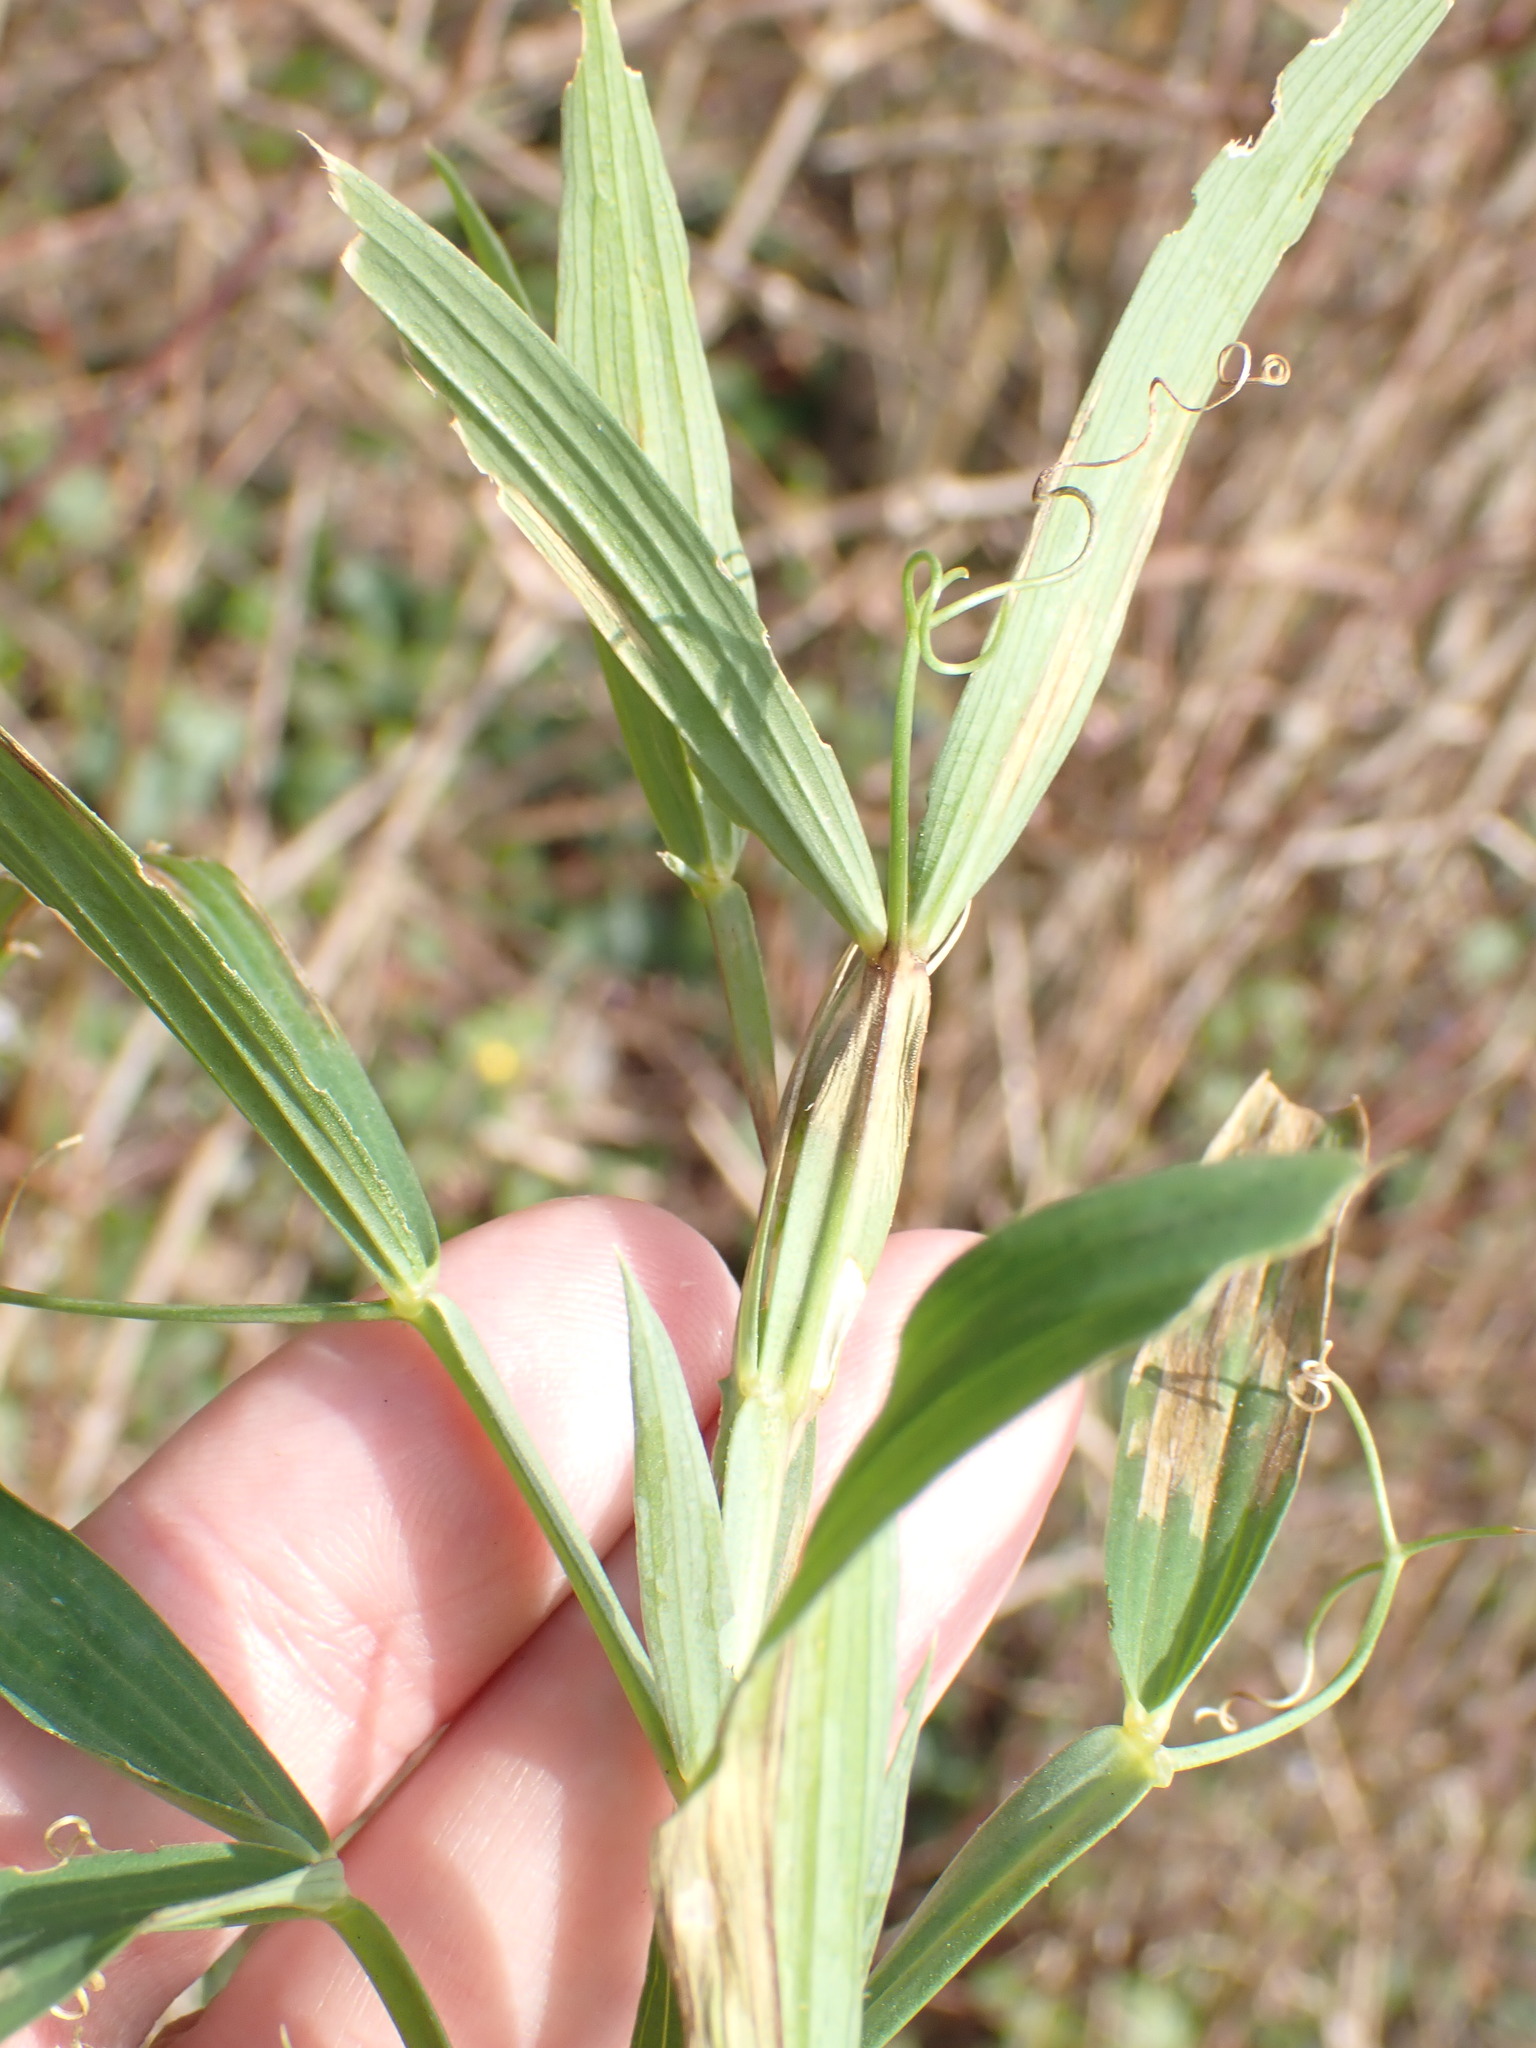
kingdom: Plantae
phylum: Tracheophyta
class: Magnoliopsida
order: Fabales
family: Fabaceae
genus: Lathyrus
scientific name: Lathyrus latifolius
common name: Perennial pea
